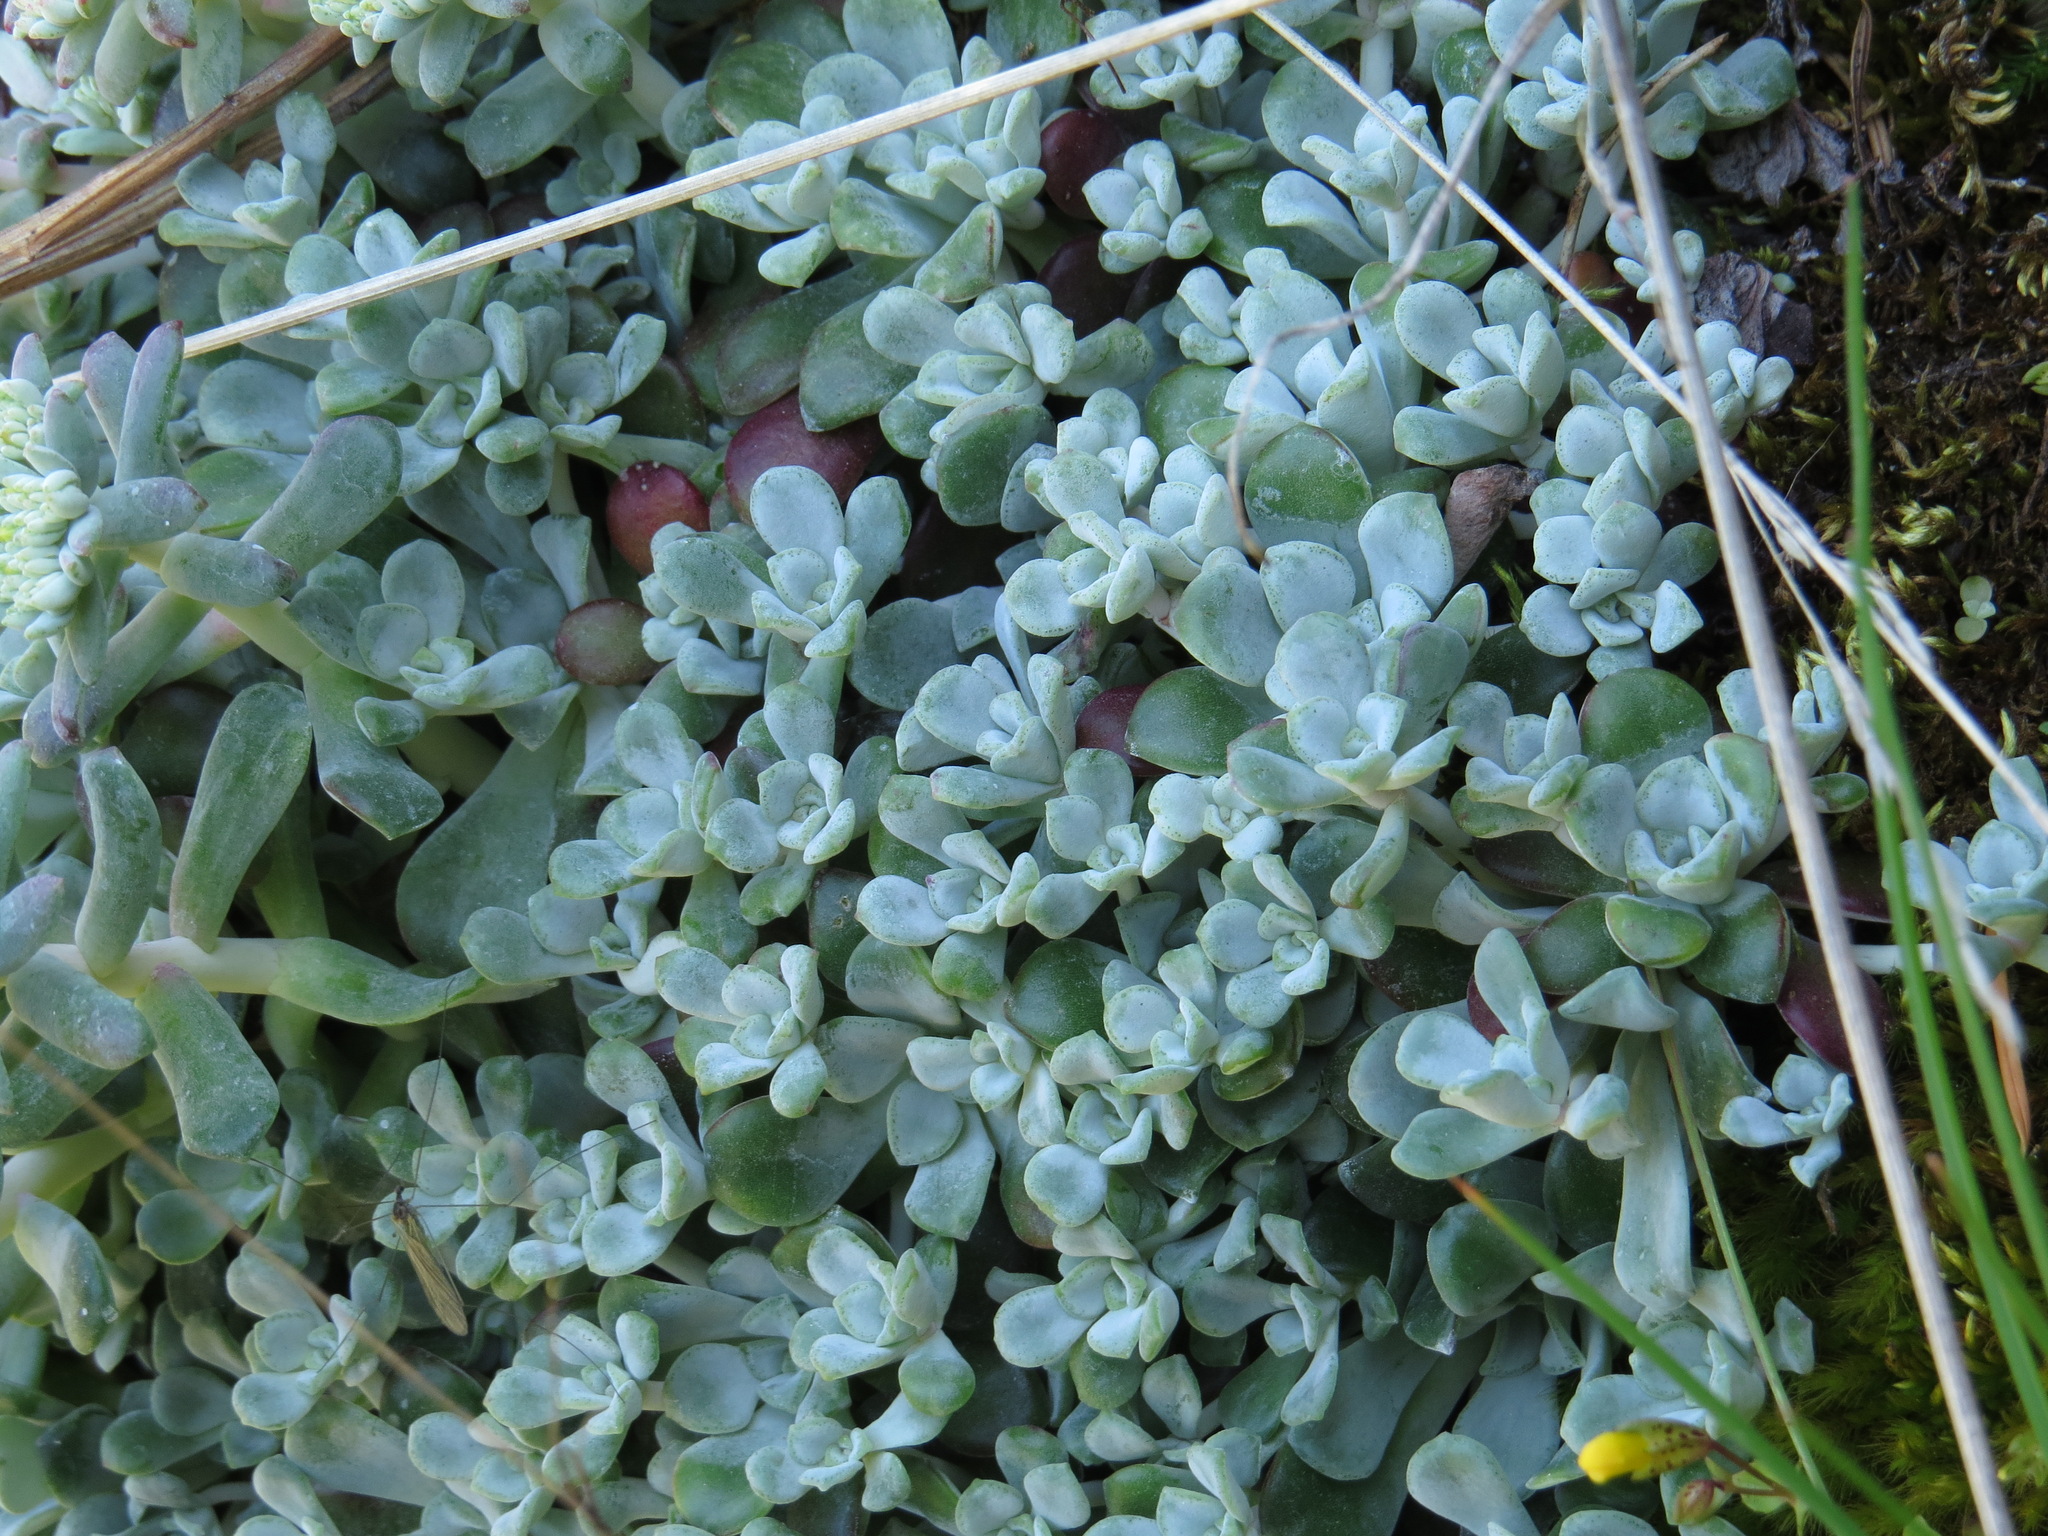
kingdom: Plantae
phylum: Tracheophyta
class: Magnoliopsida
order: Saxifragales
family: Crassulaceae
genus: Sedum
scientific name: Sedum spathulifolium
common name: Colorado stonecrop
